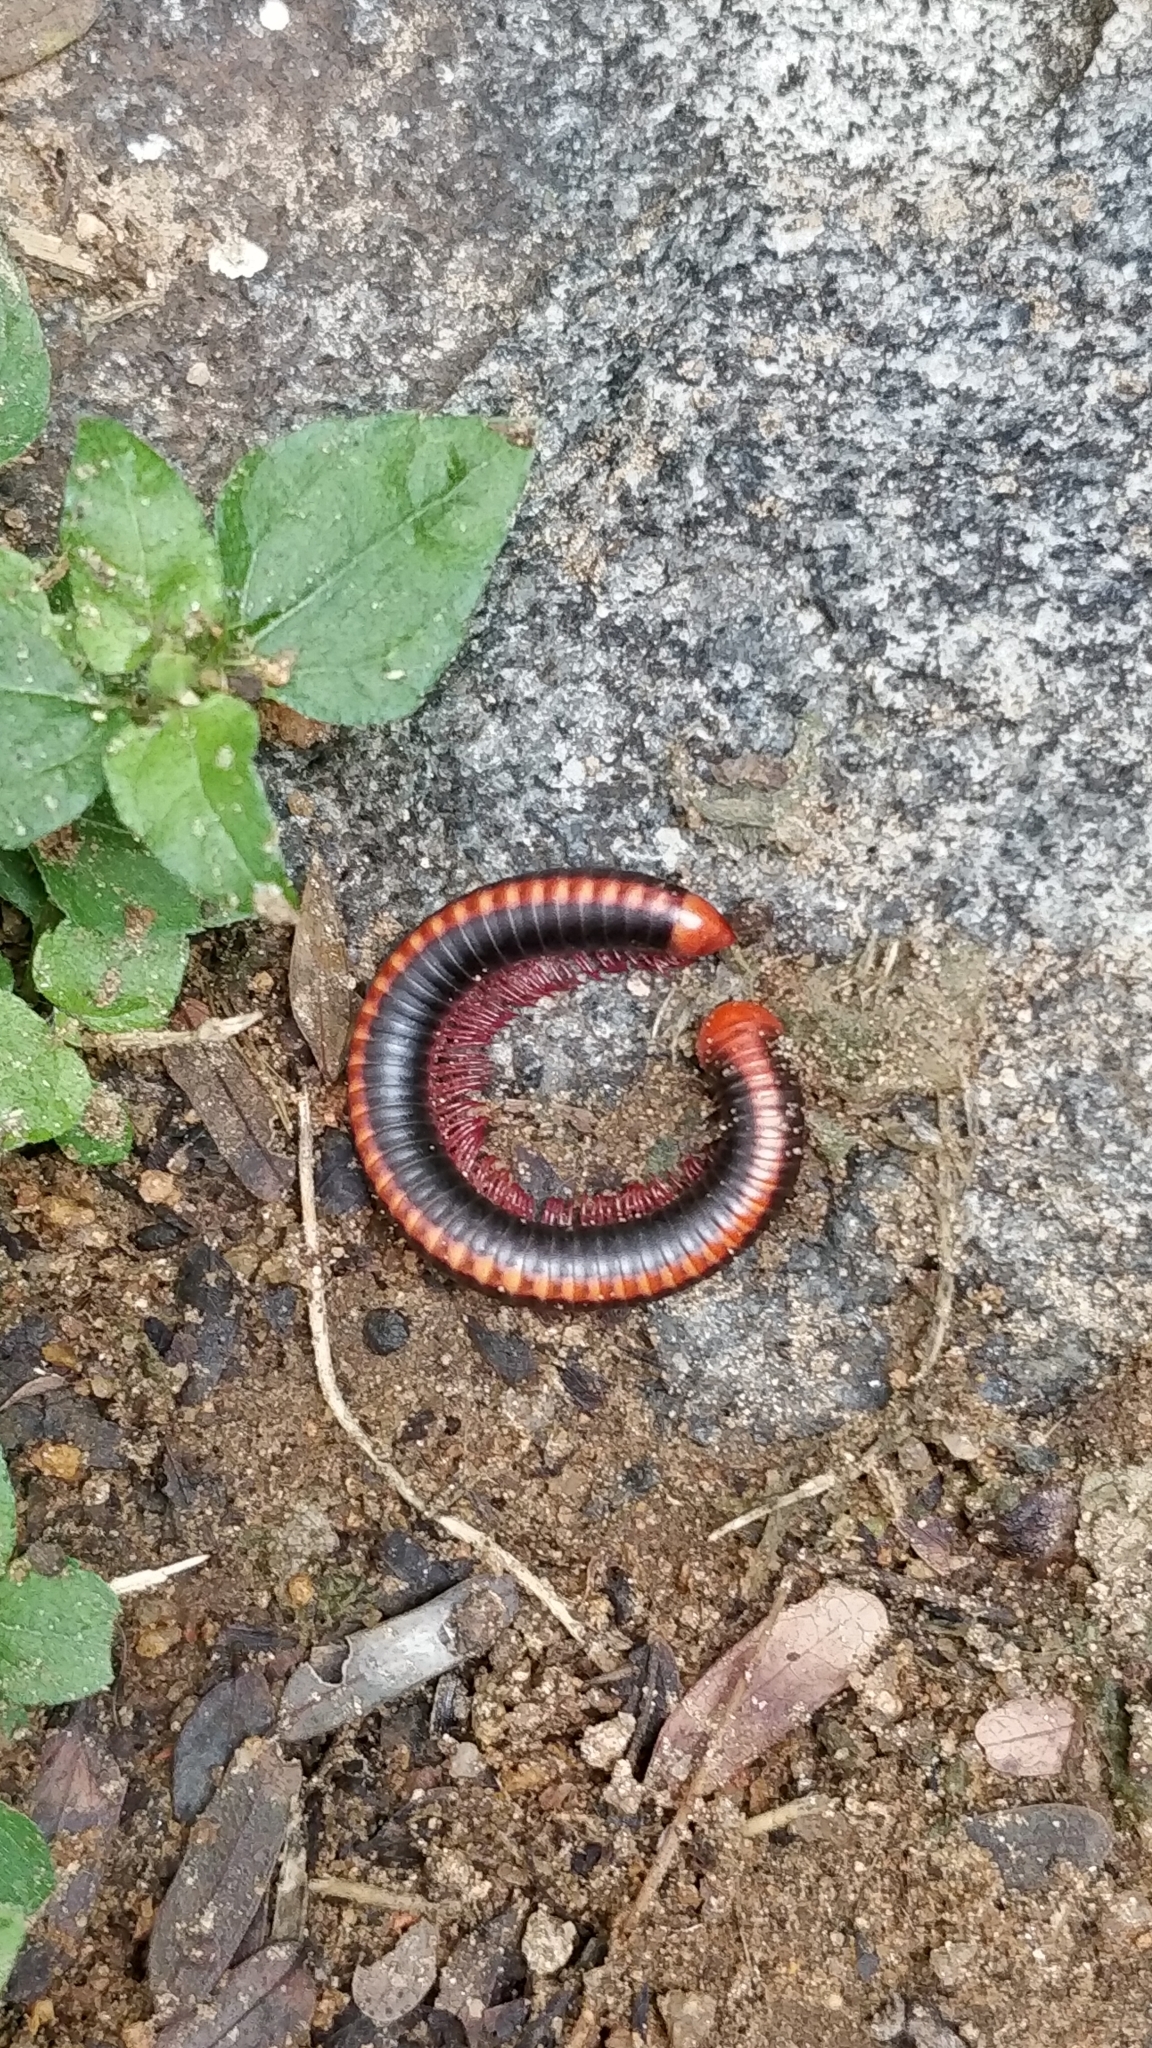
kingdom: Animalia
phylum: Arthropoda
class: Diplopoda
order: Spirobolida
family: Pachybolidae
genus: Xenobolus
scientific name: Xenobolus carnifex
